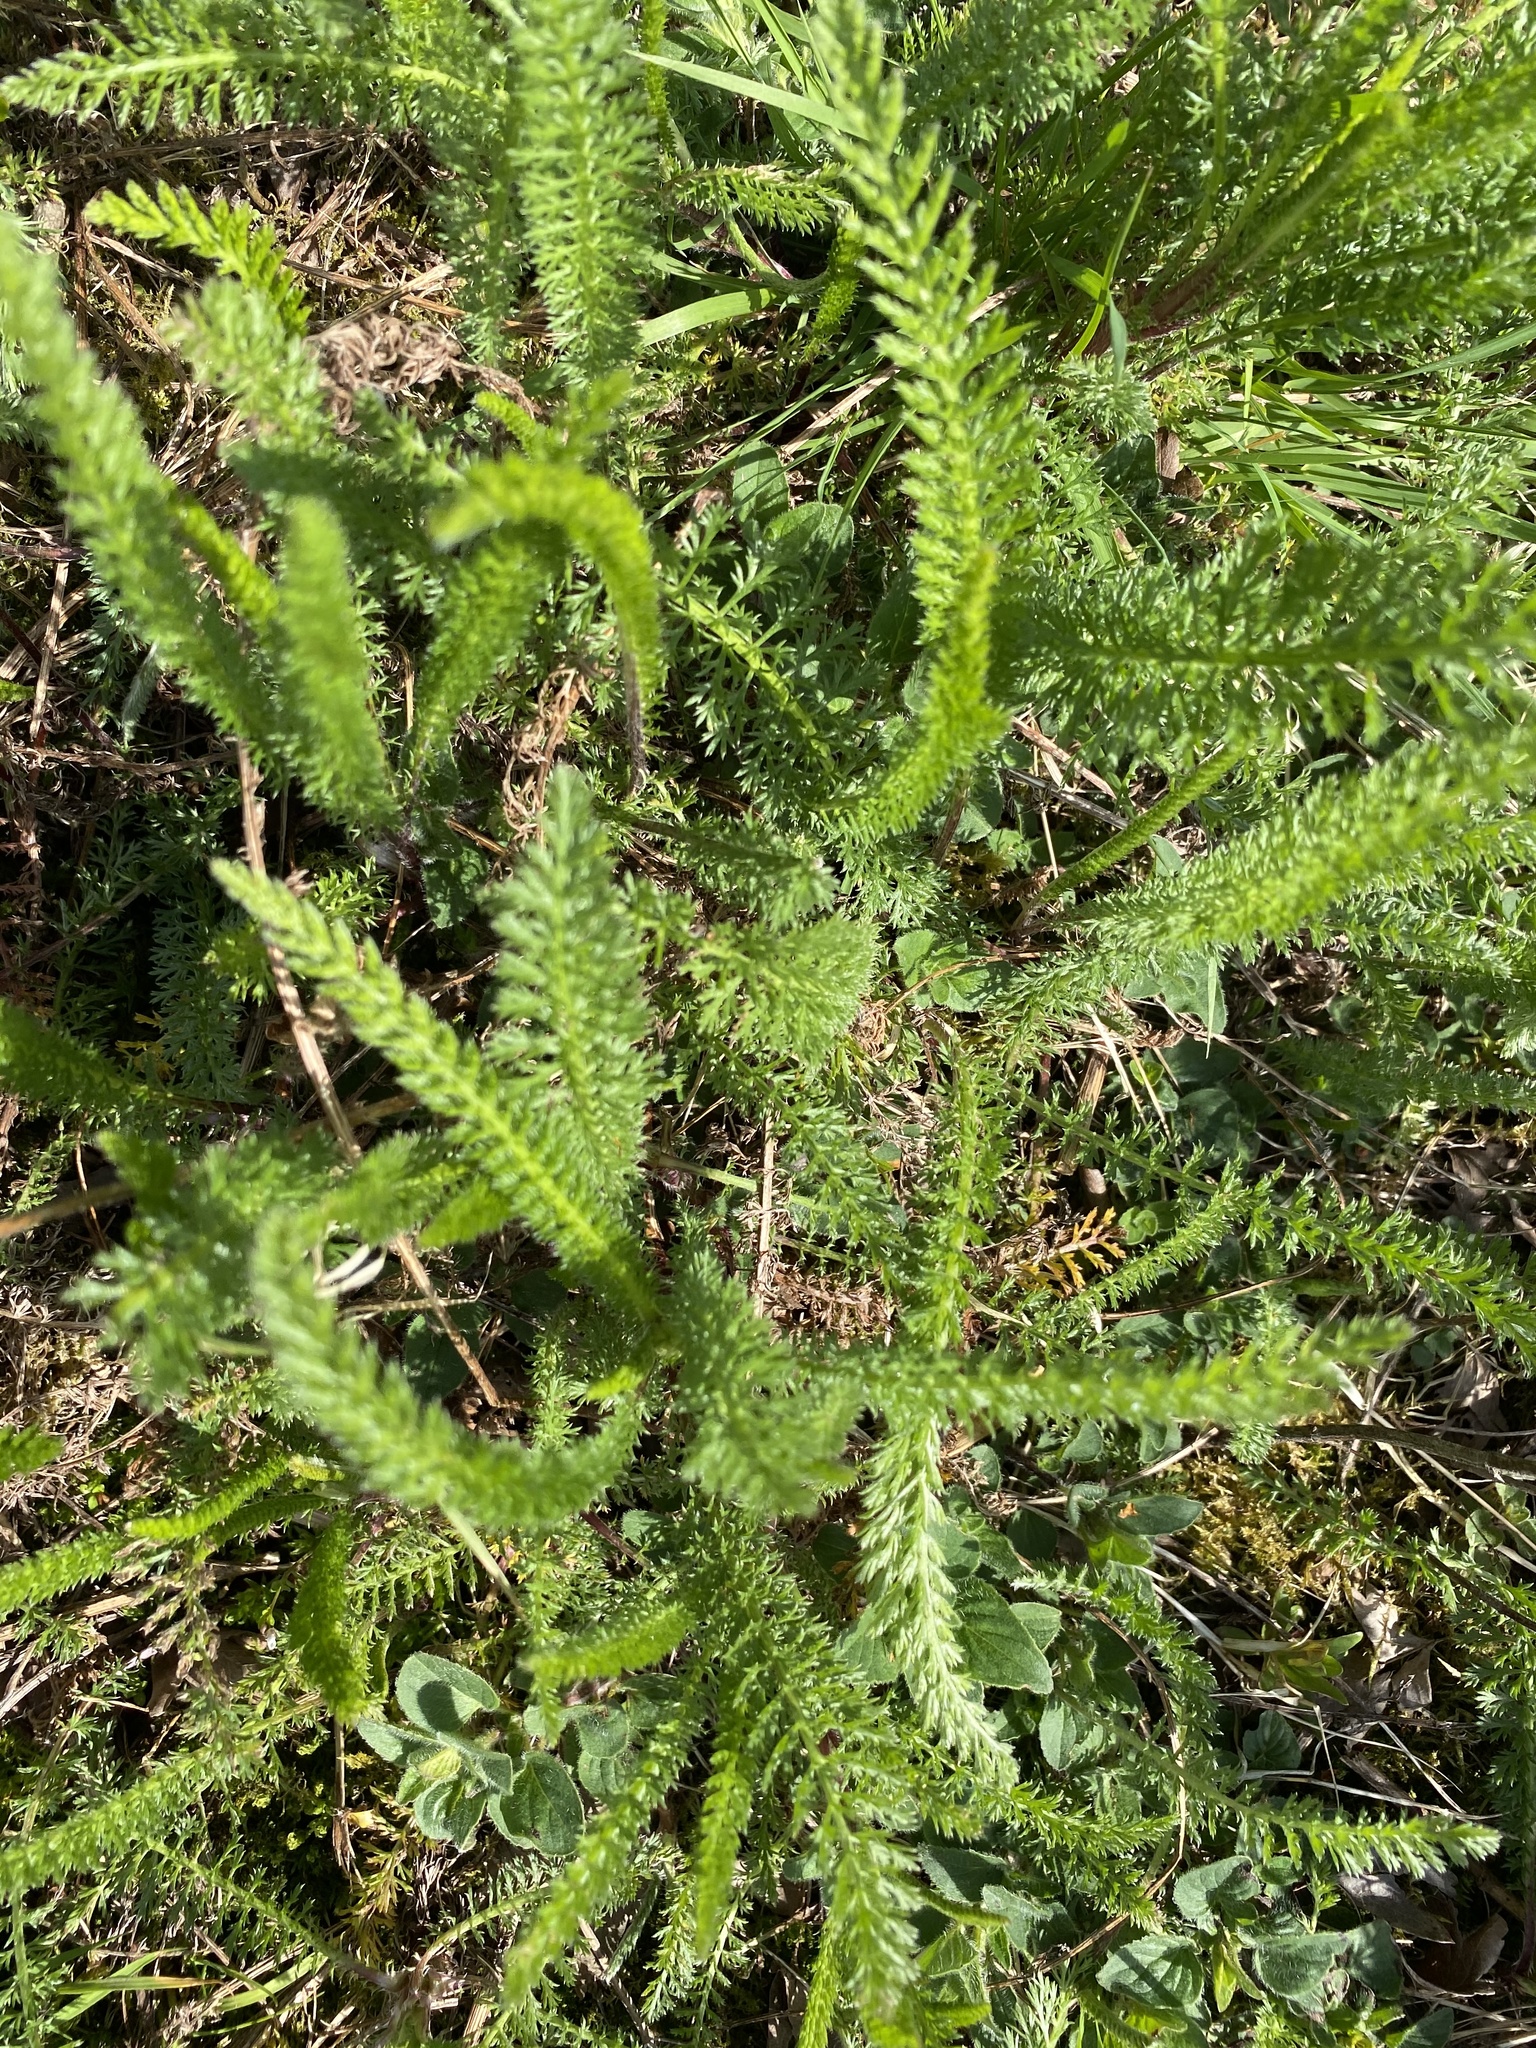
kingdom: Plantae
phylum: Tracheophyta
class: Magnoliopsida
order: Asterales
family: Asteraceae
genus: Achillea
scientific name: Achillea millefolium
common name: Yarrow
